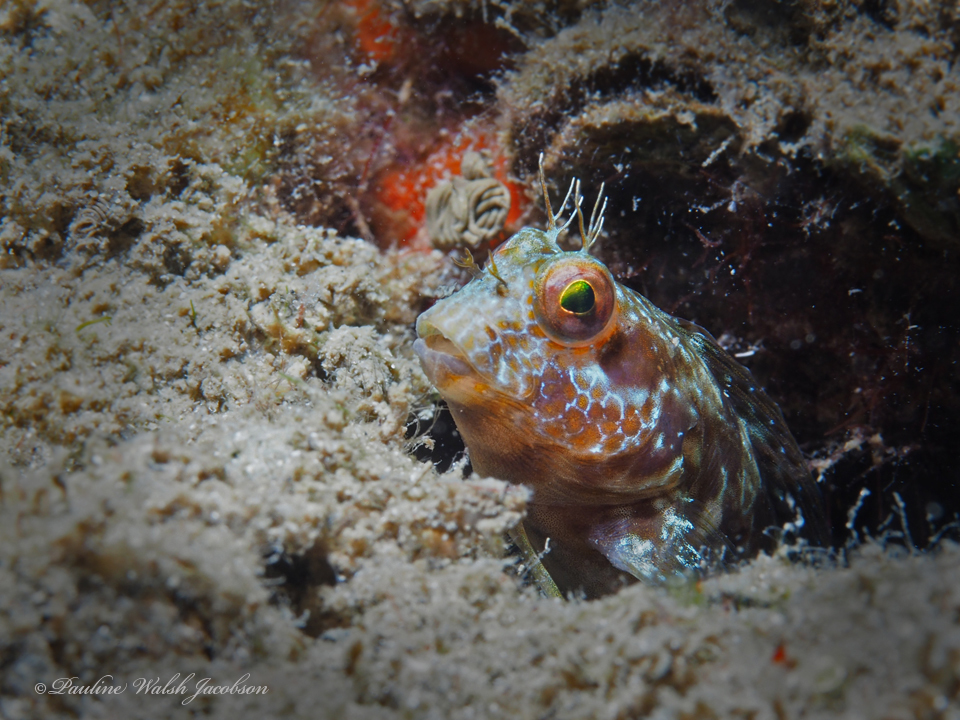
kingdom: Animalia
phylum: Chordata
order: Perciformes
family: Blenniidae
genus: Parablennius
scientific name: Parablennius marmoreus
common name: Seaweed blenny
